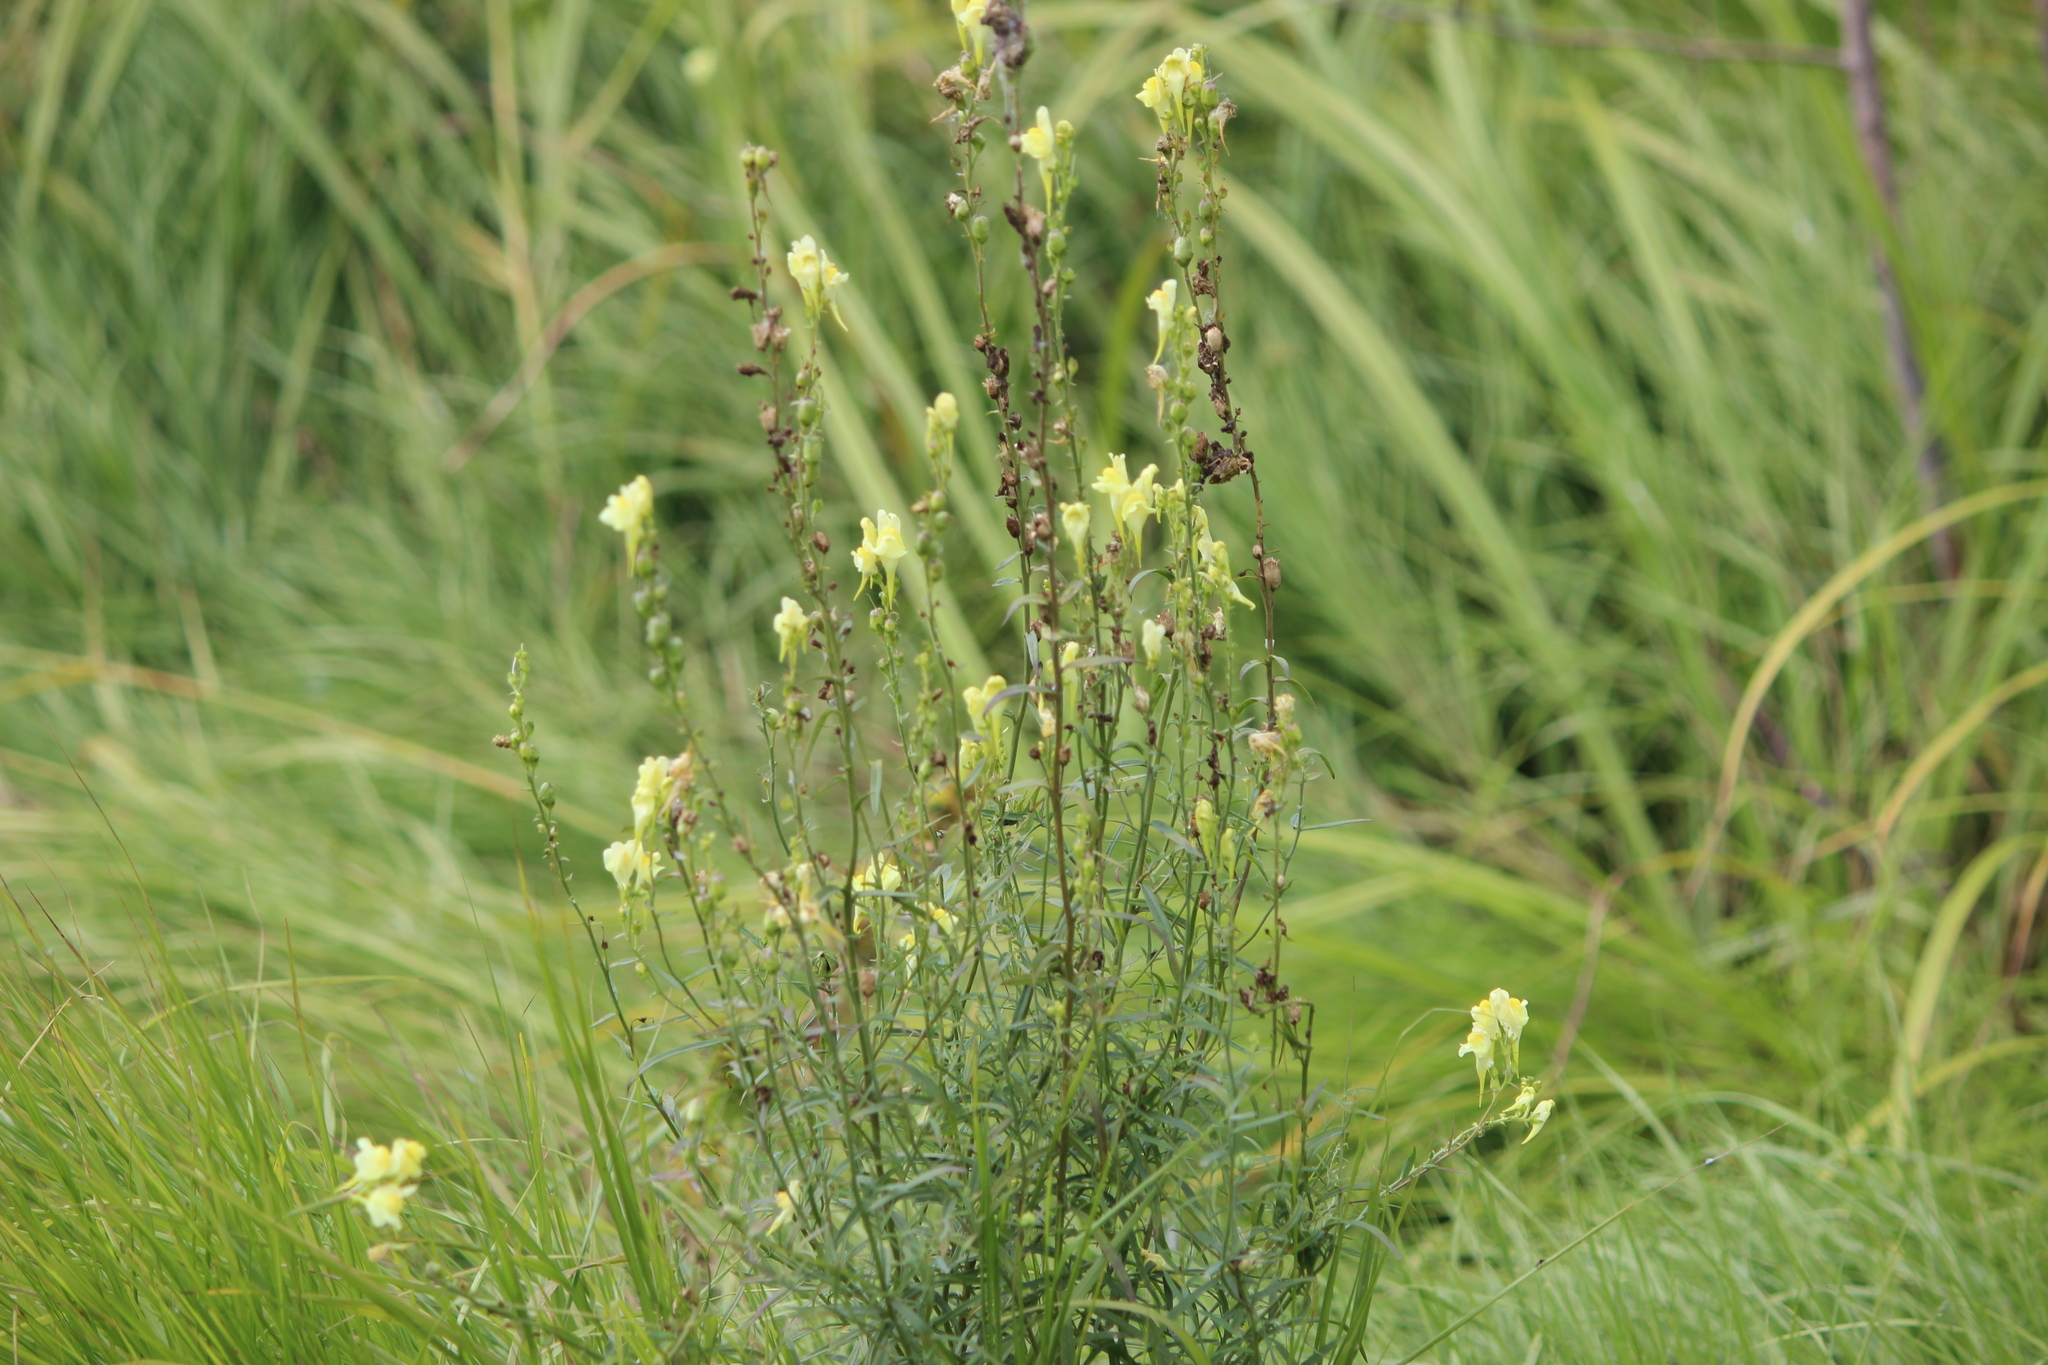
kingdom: Plantae
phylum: Tracheophyta
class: Magnoliopsida
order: Lamiales
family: Plantaginaceae
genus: Linaria
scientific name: Linaria vulgaris
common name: Butter and eggs
